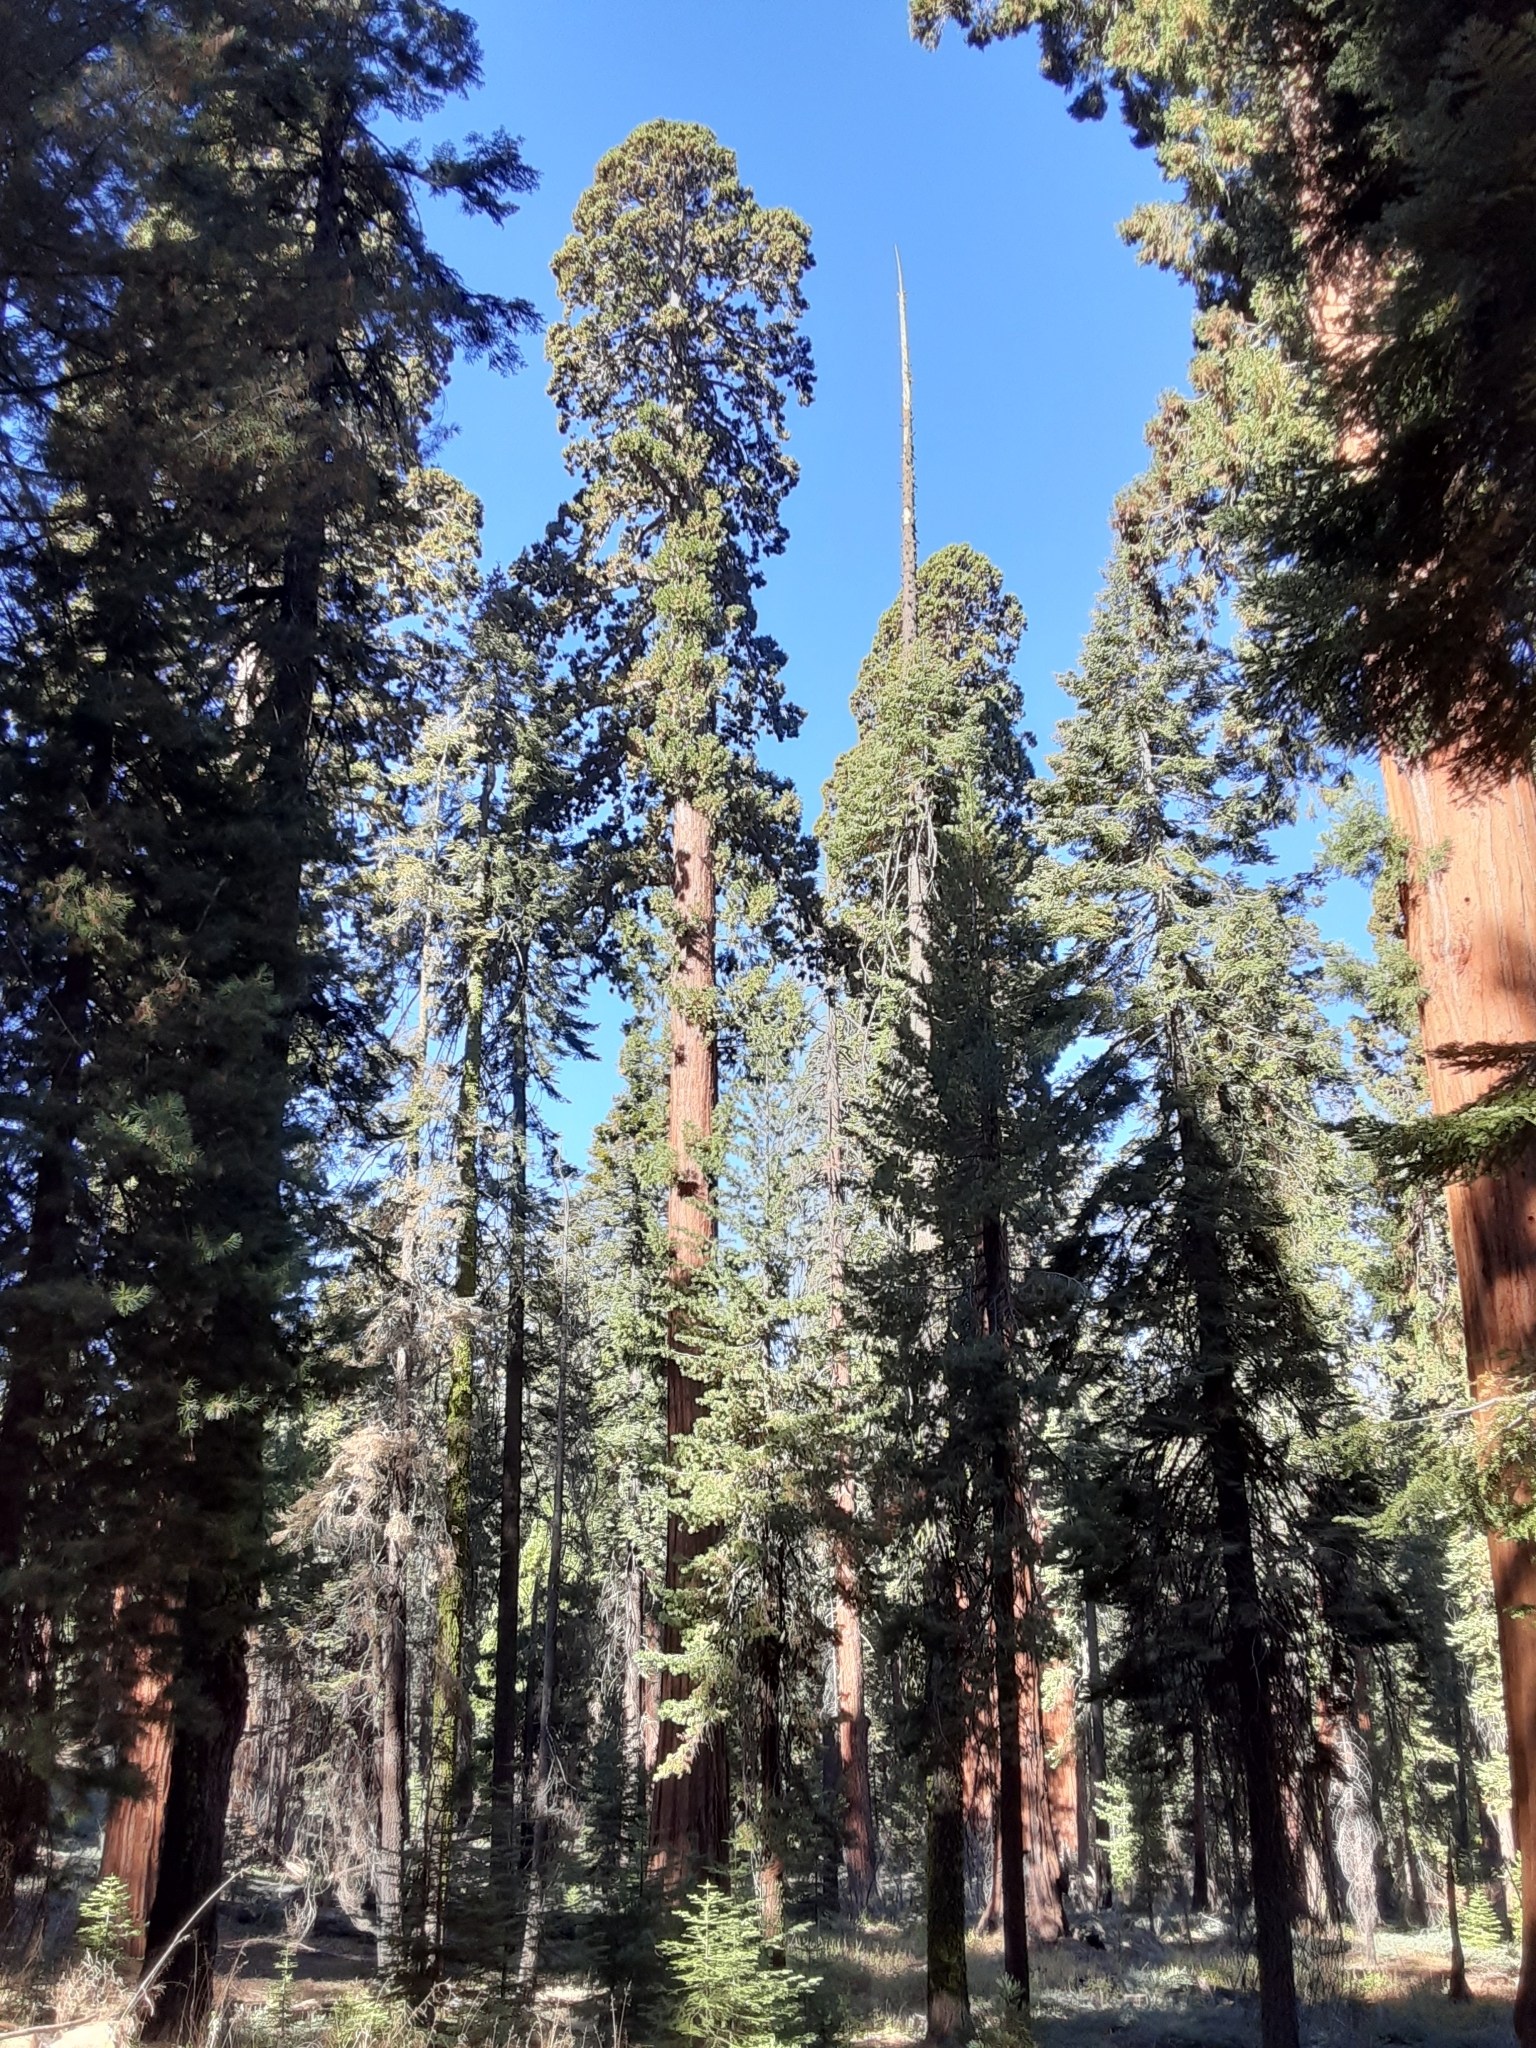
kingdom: Plantae
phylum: Tracheophyta
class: Pinopsida
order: Pinales
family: Cupressaceae
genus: Sequoiadendron
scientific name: Sequoiadendron giganteum
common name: Wellingtonia
